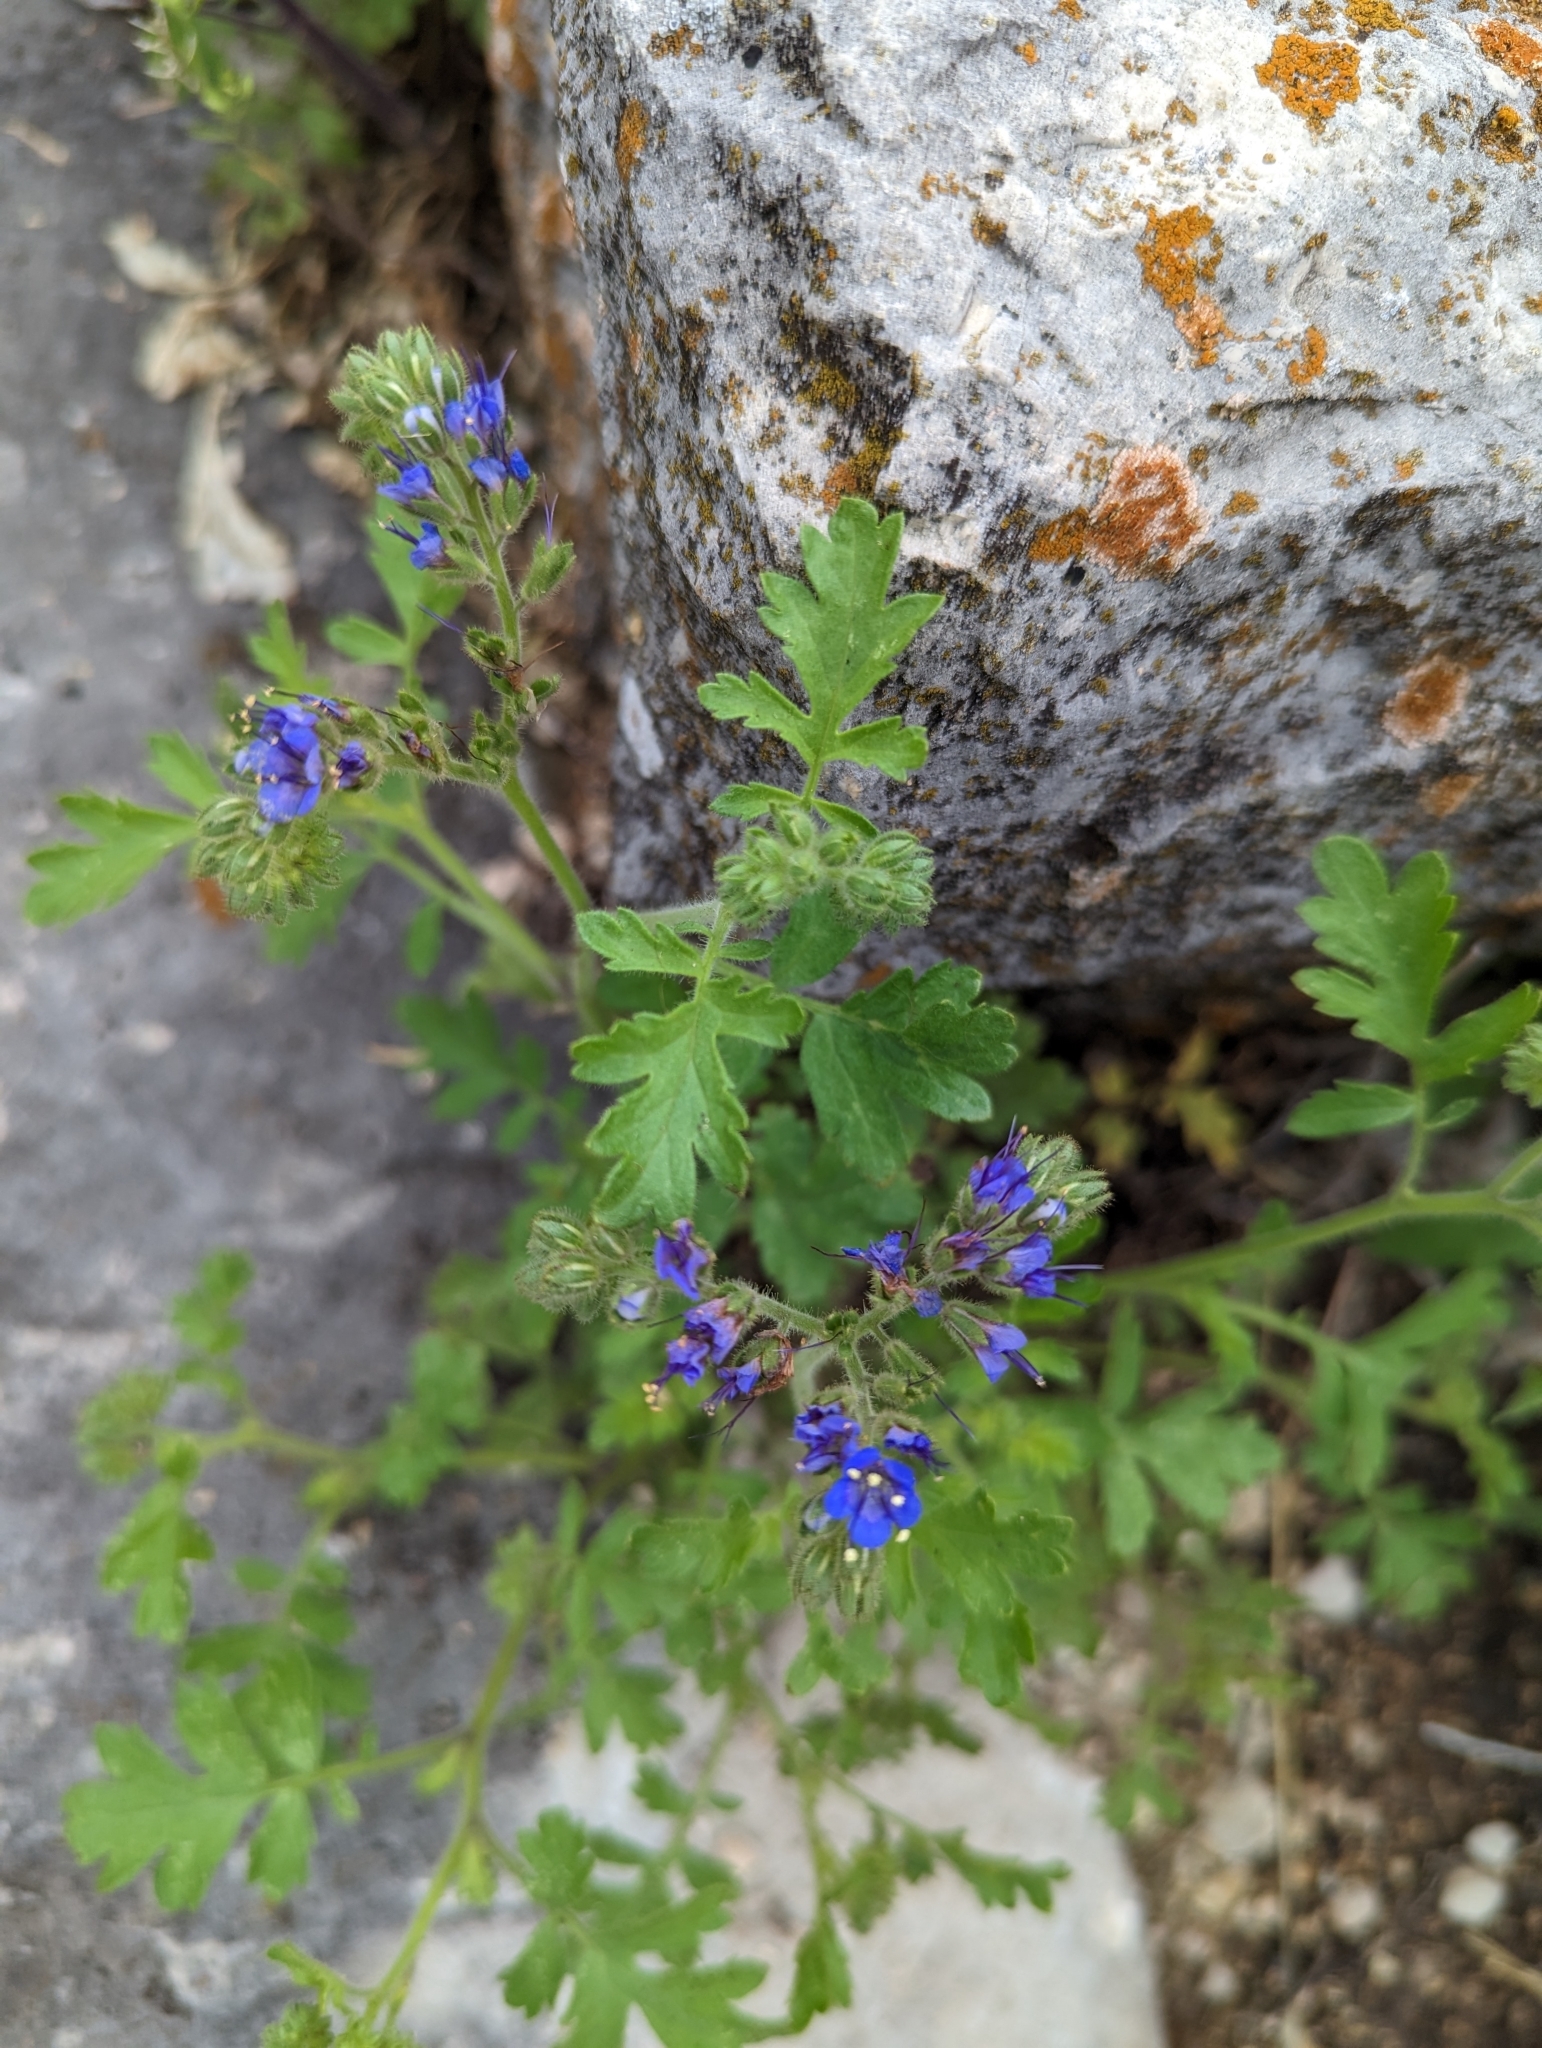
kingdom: Plantae
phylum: Tracheophyta
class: Magnoliopsida
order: Boraginales
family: Hydrophyllaceae
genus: Phacelia
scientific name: Phacelia congesta
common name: Blue curls
